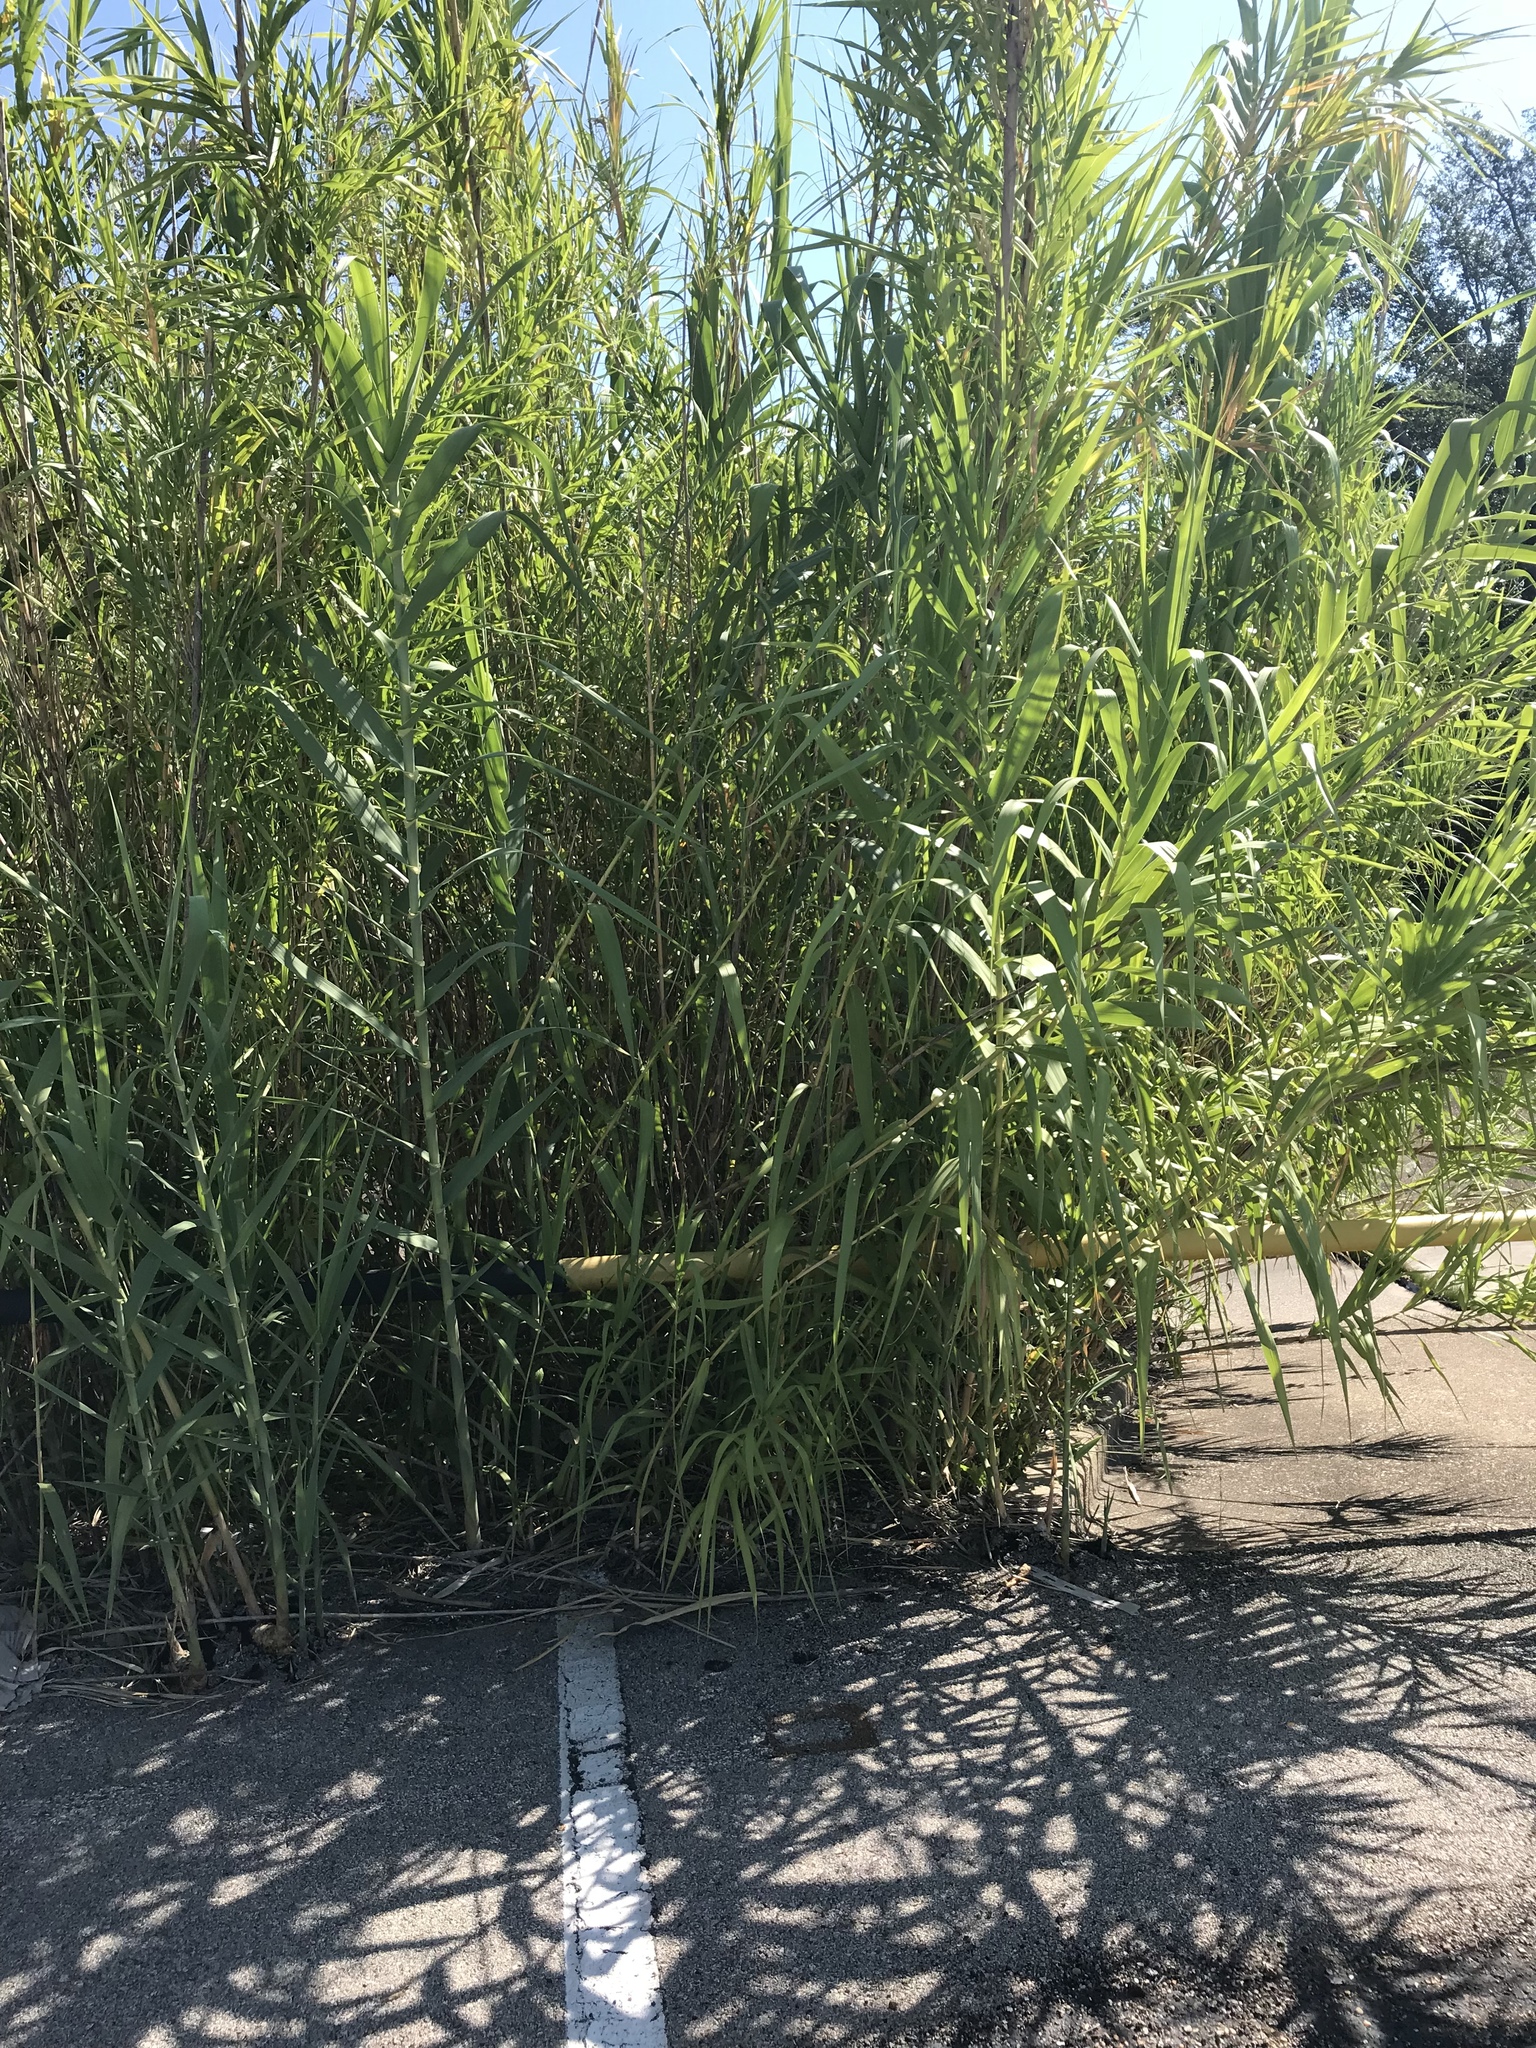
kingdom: Plantae
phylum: Tracheophyta
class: Liliopsida
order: Poales
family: Poaceae
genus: Arundo
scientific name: Arundo donax
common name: Giant reed
